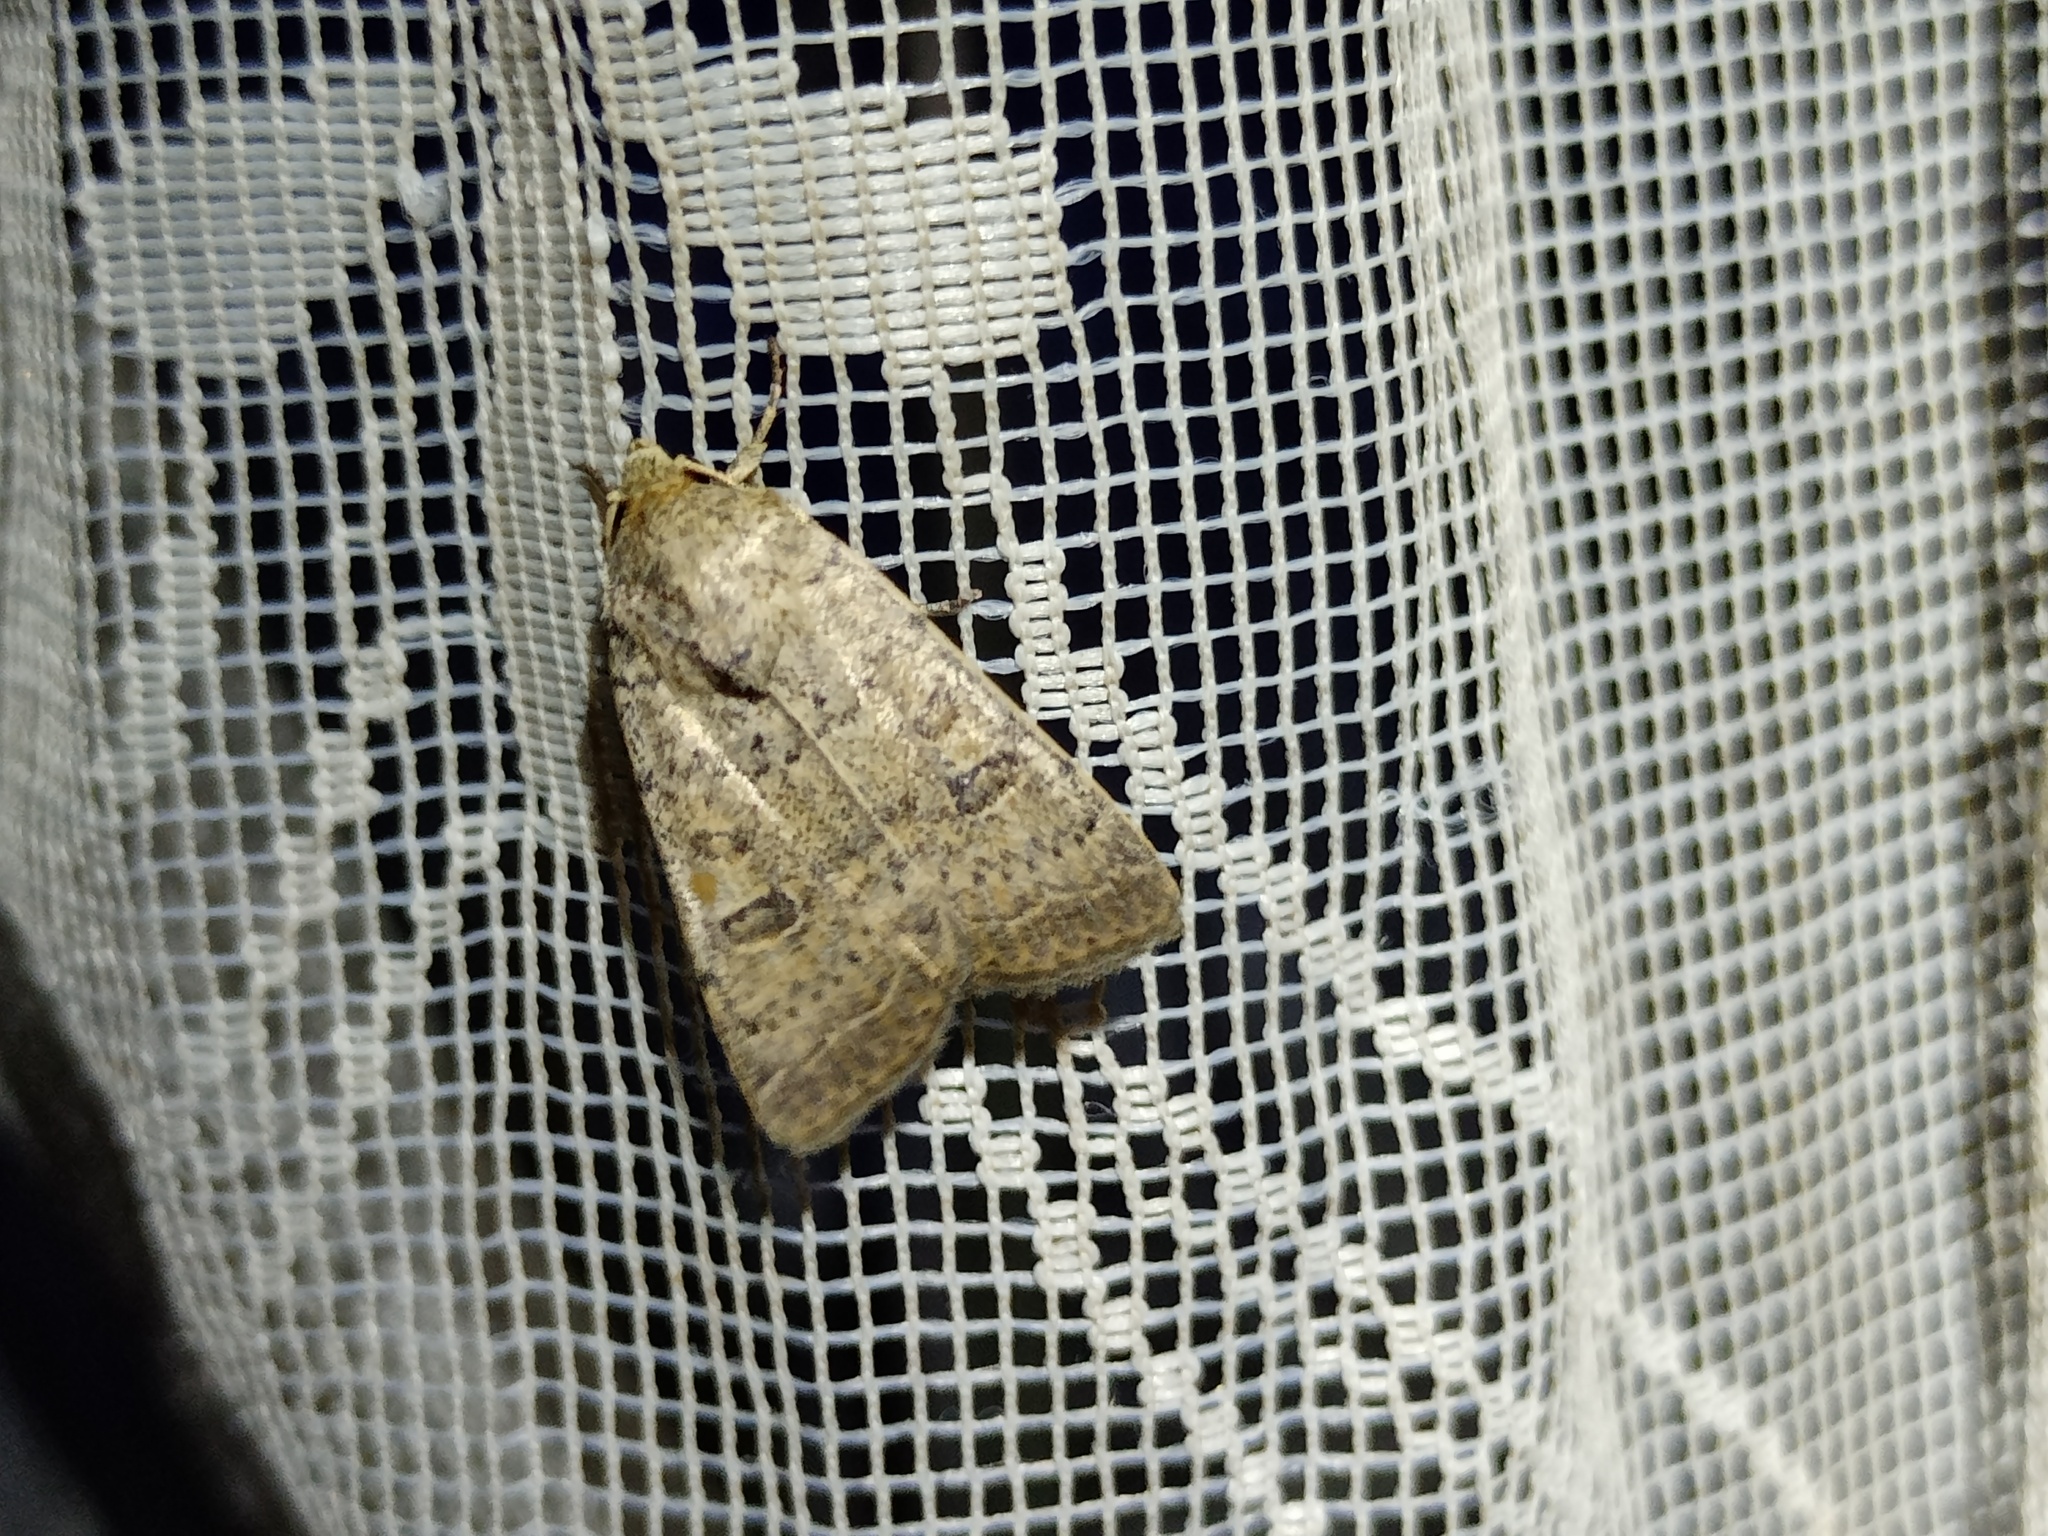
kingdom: Animalia
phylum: Arthropoda
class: Insecta
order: Lepidoptera
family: Noctuidae
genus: Hoplodrina
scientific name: Hoplodrina superstes
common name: Powdered rustic
